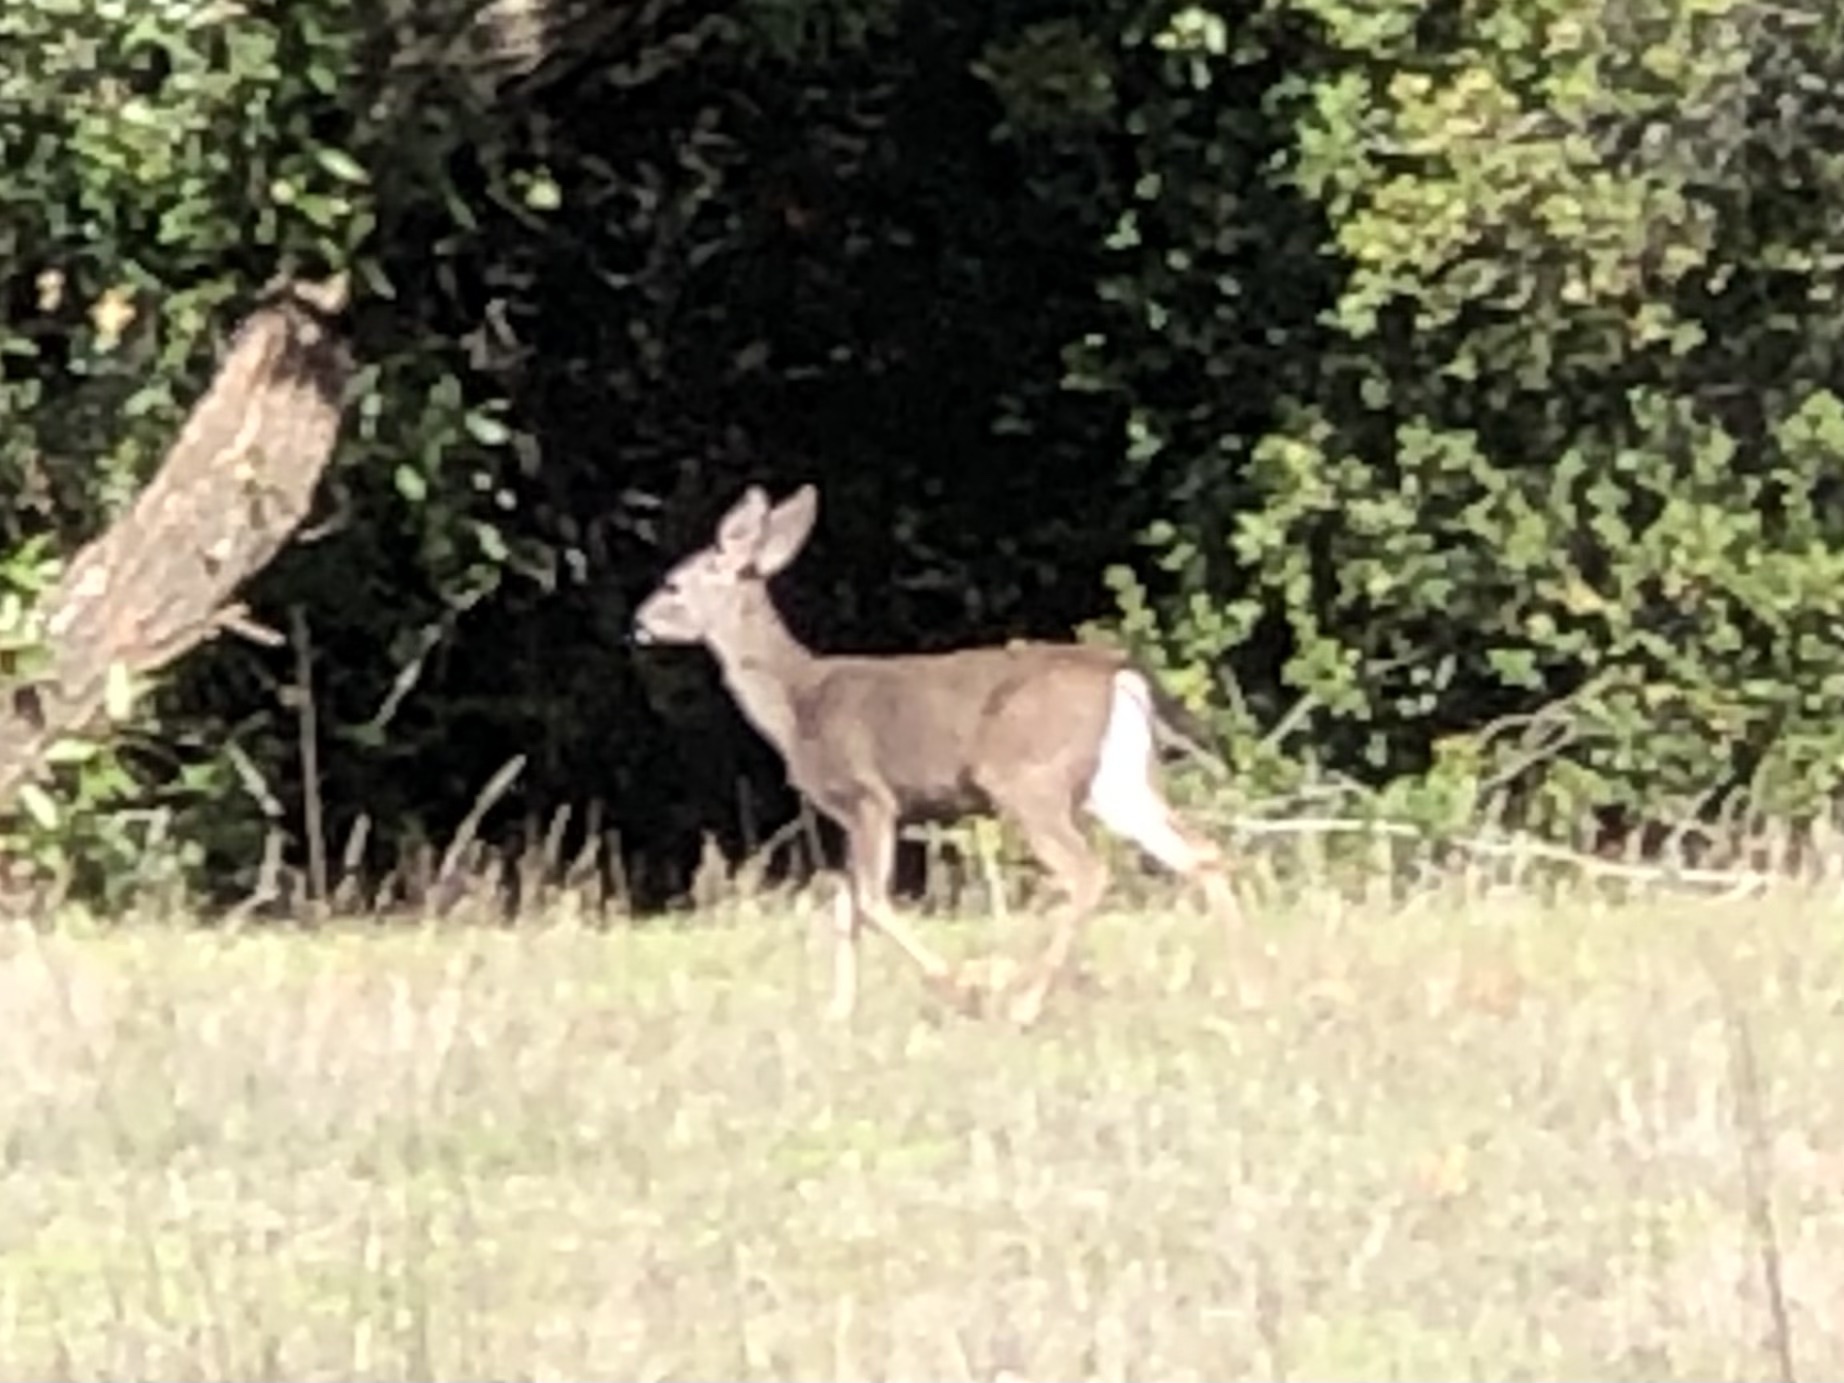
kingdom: Animalia
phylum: Chordata
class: Mammalia
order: Artiodactyla
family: Cervidae
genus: Odocoileus
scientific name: Odocoileus hemionus
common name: Mule deer
